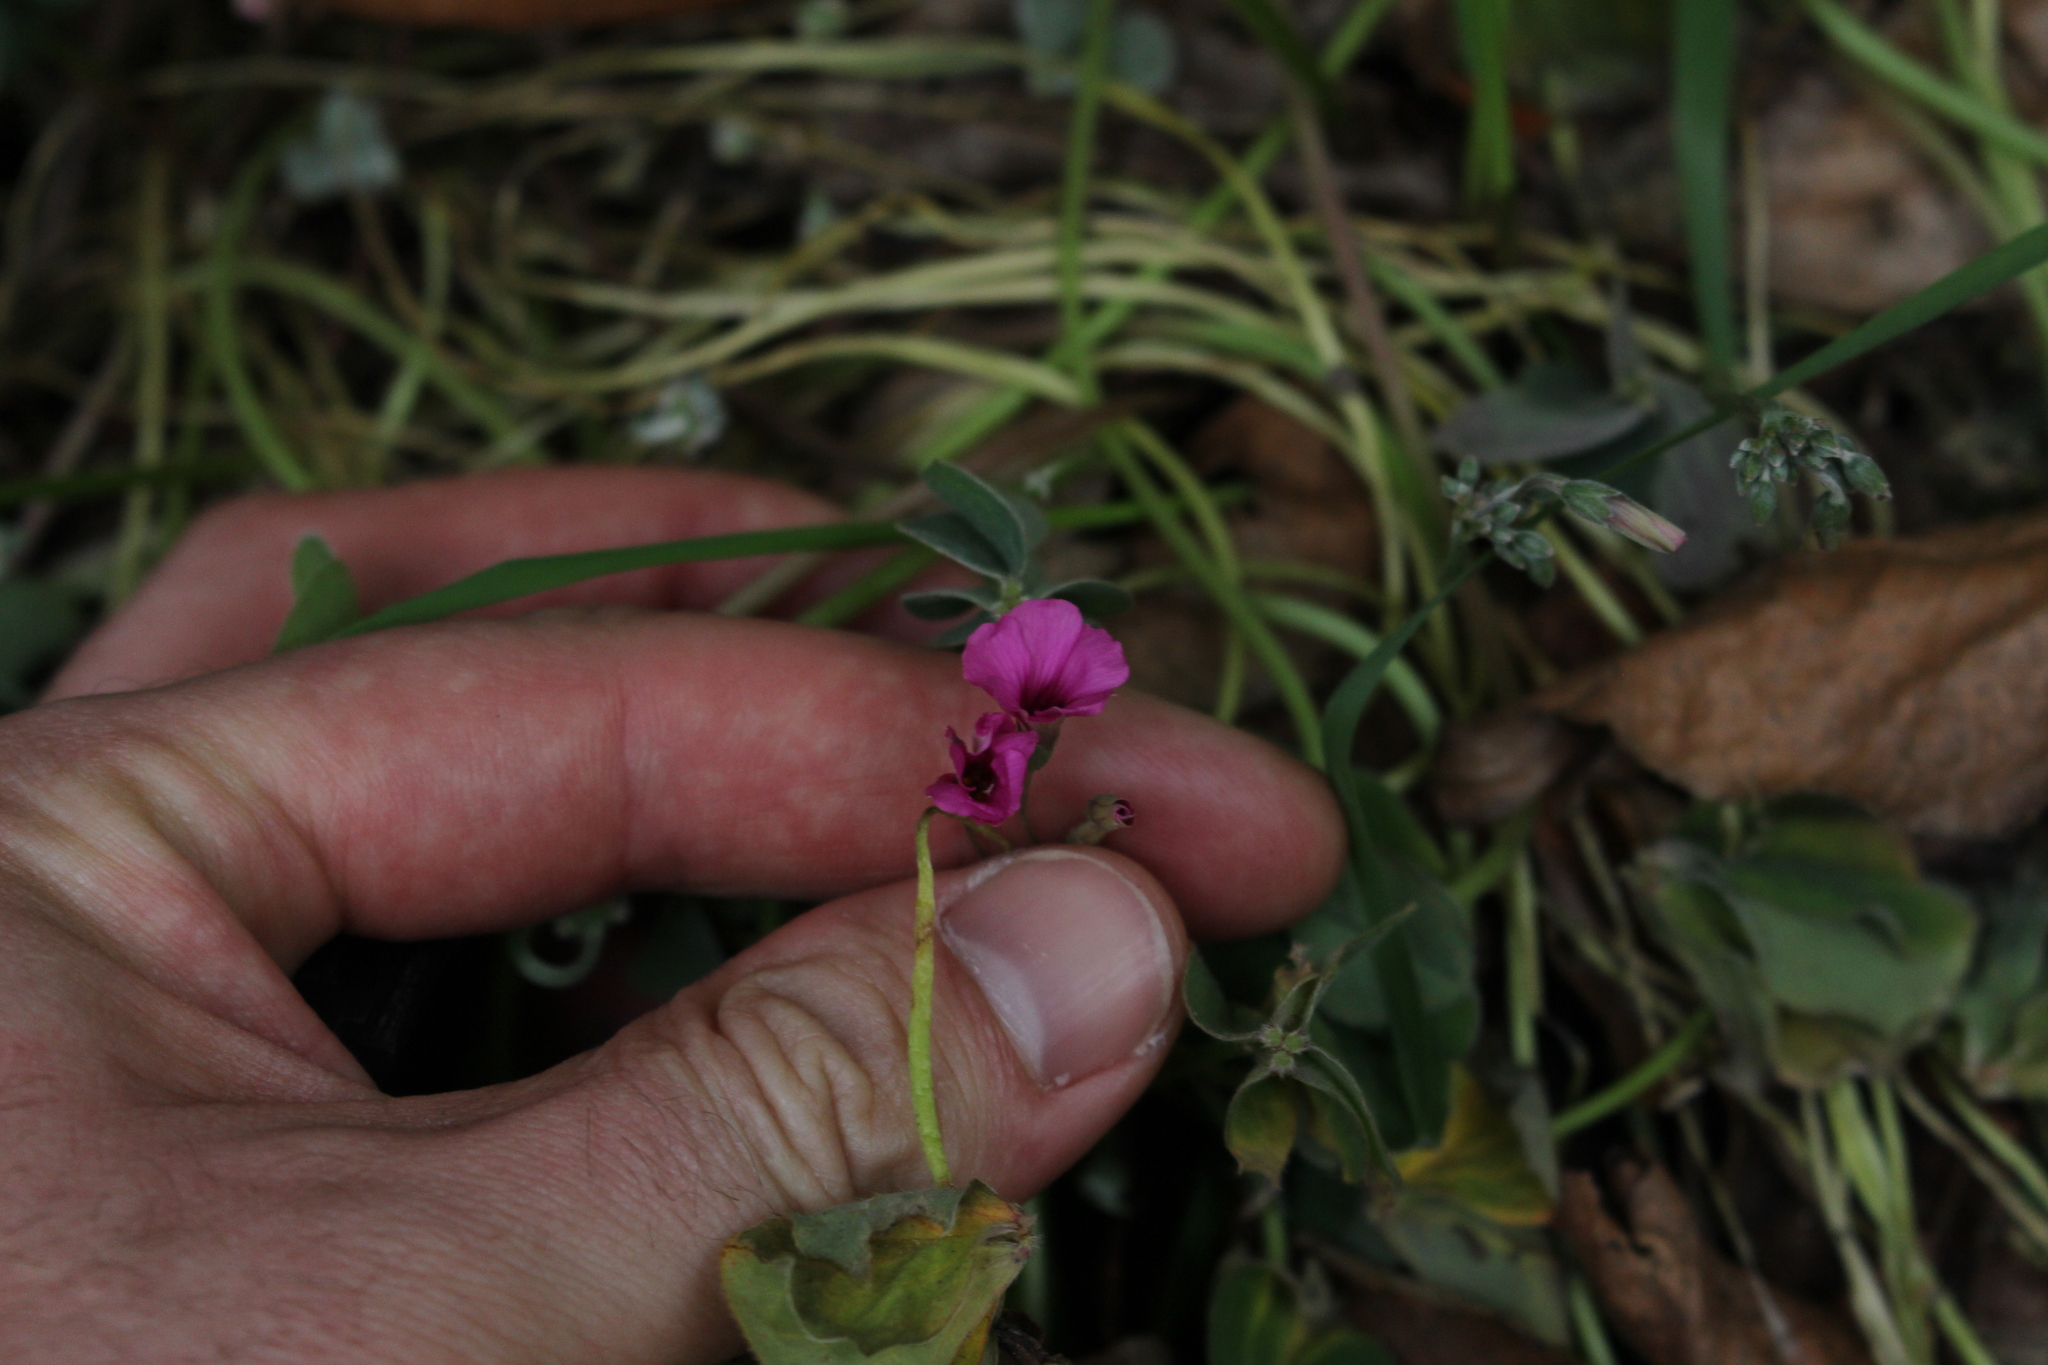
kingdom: Plantae
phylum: Tracheophyta
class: Magnoliopsida
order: Oxalidales
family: Oxalidaceae
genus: Oxalis
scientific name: Oxalis articulata
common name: Pink-sorrel
